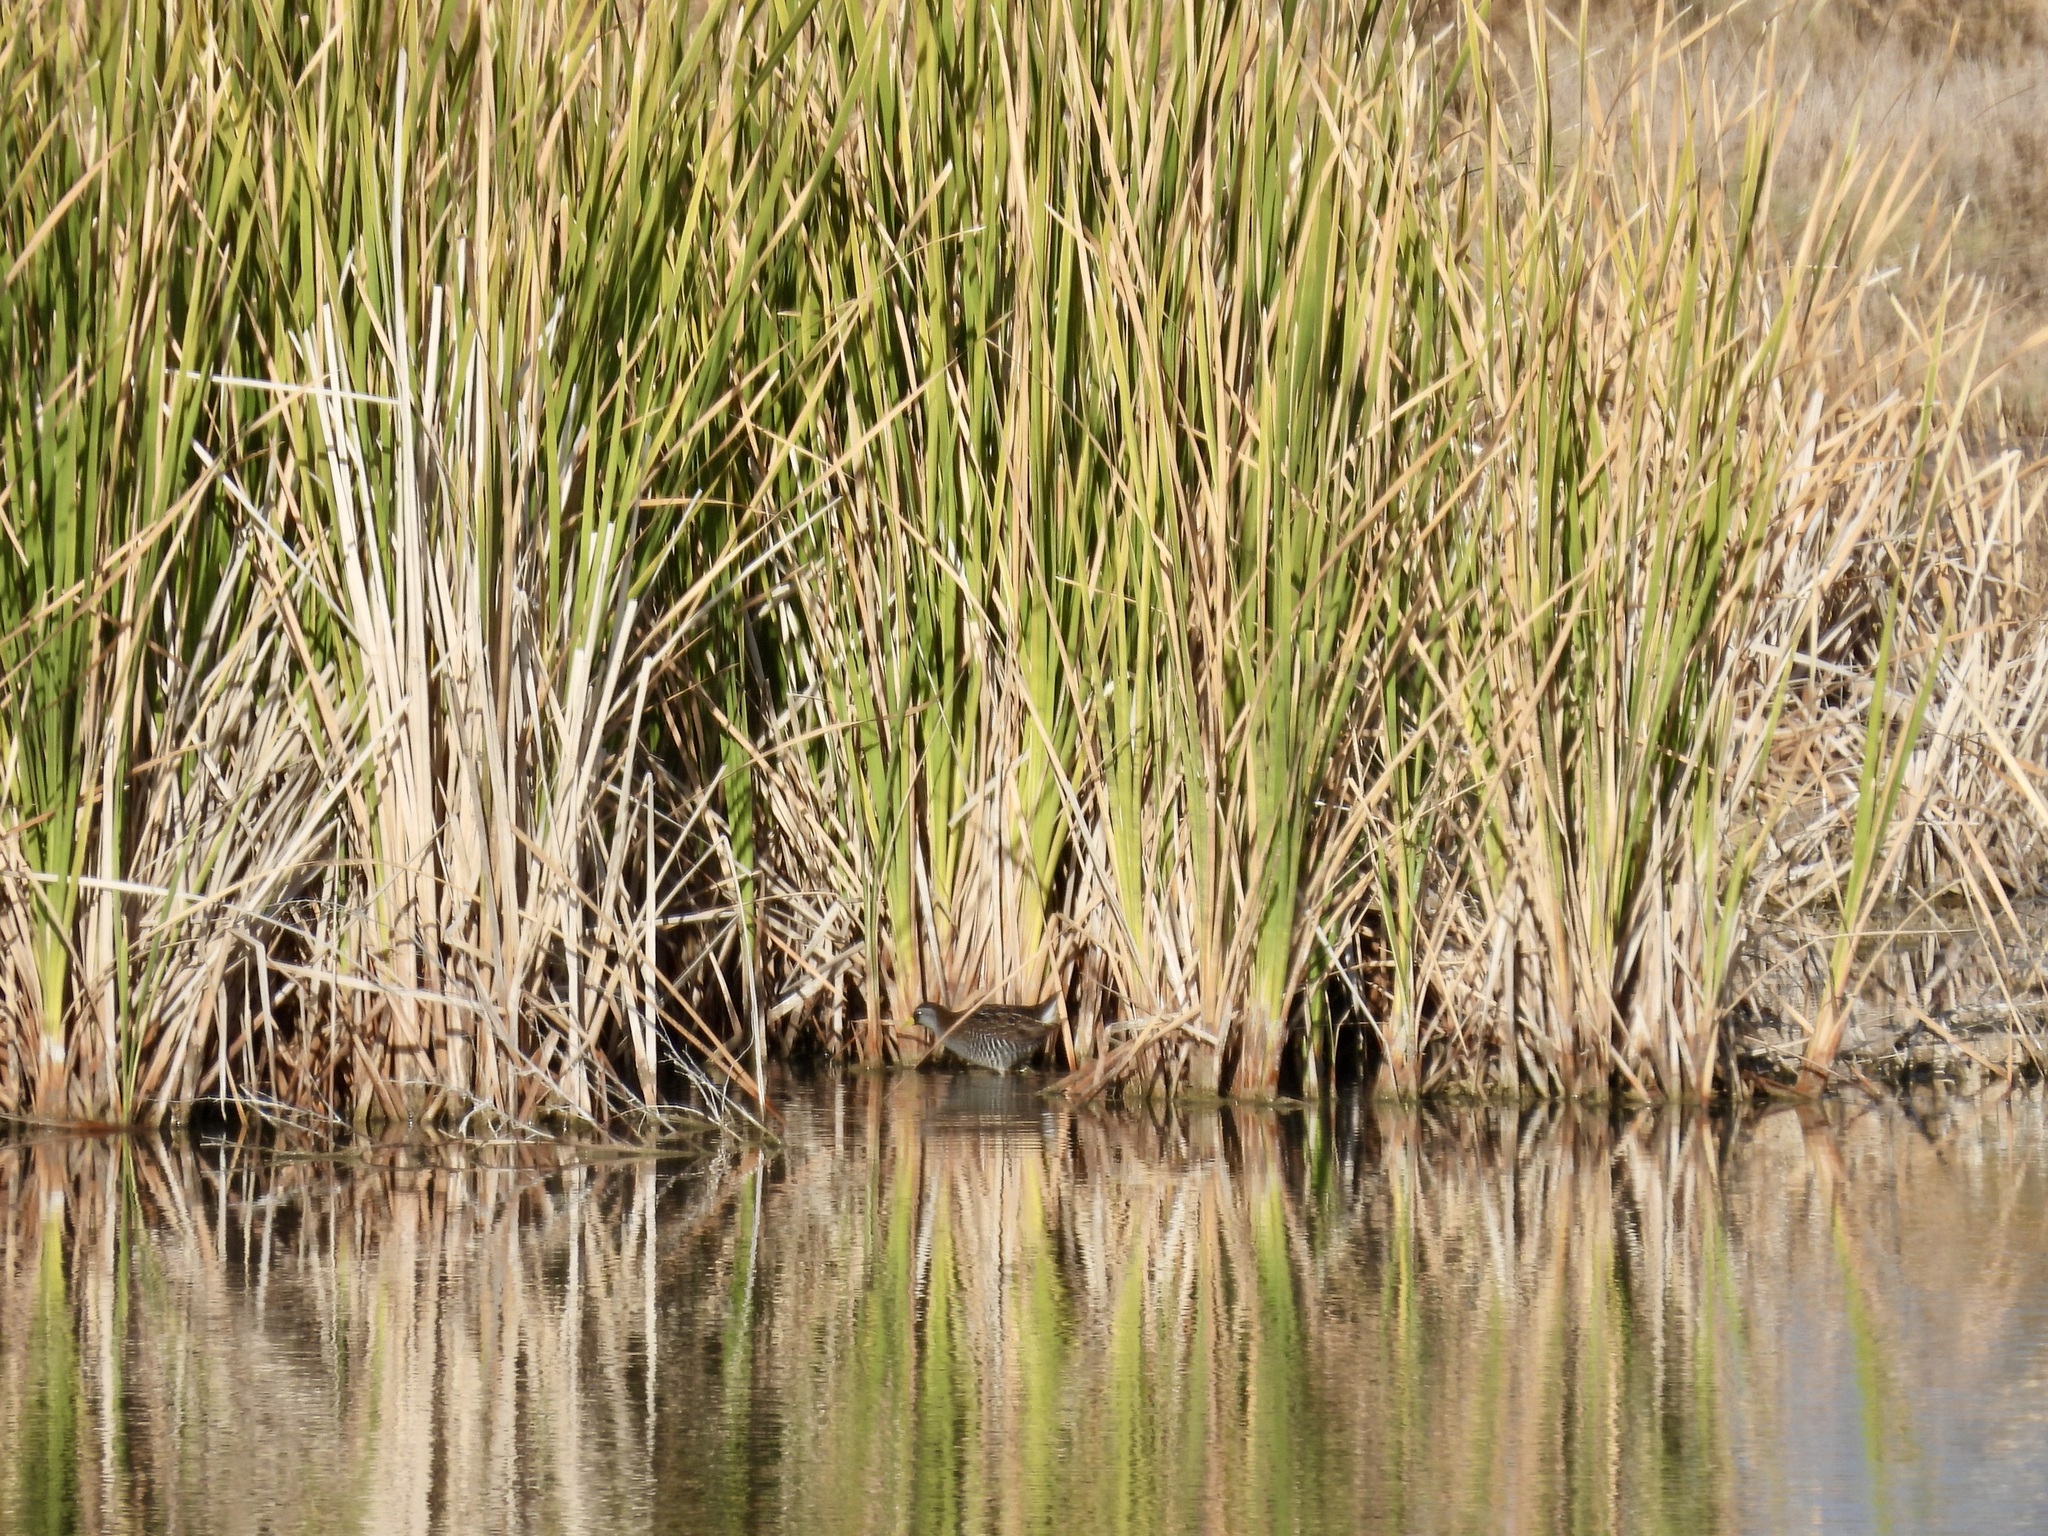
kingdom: Animalia
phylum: Chordata
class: Aves
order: Gruiformes
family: Rallidae
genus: Porzana
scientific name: Porzana carolina
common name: Sora
